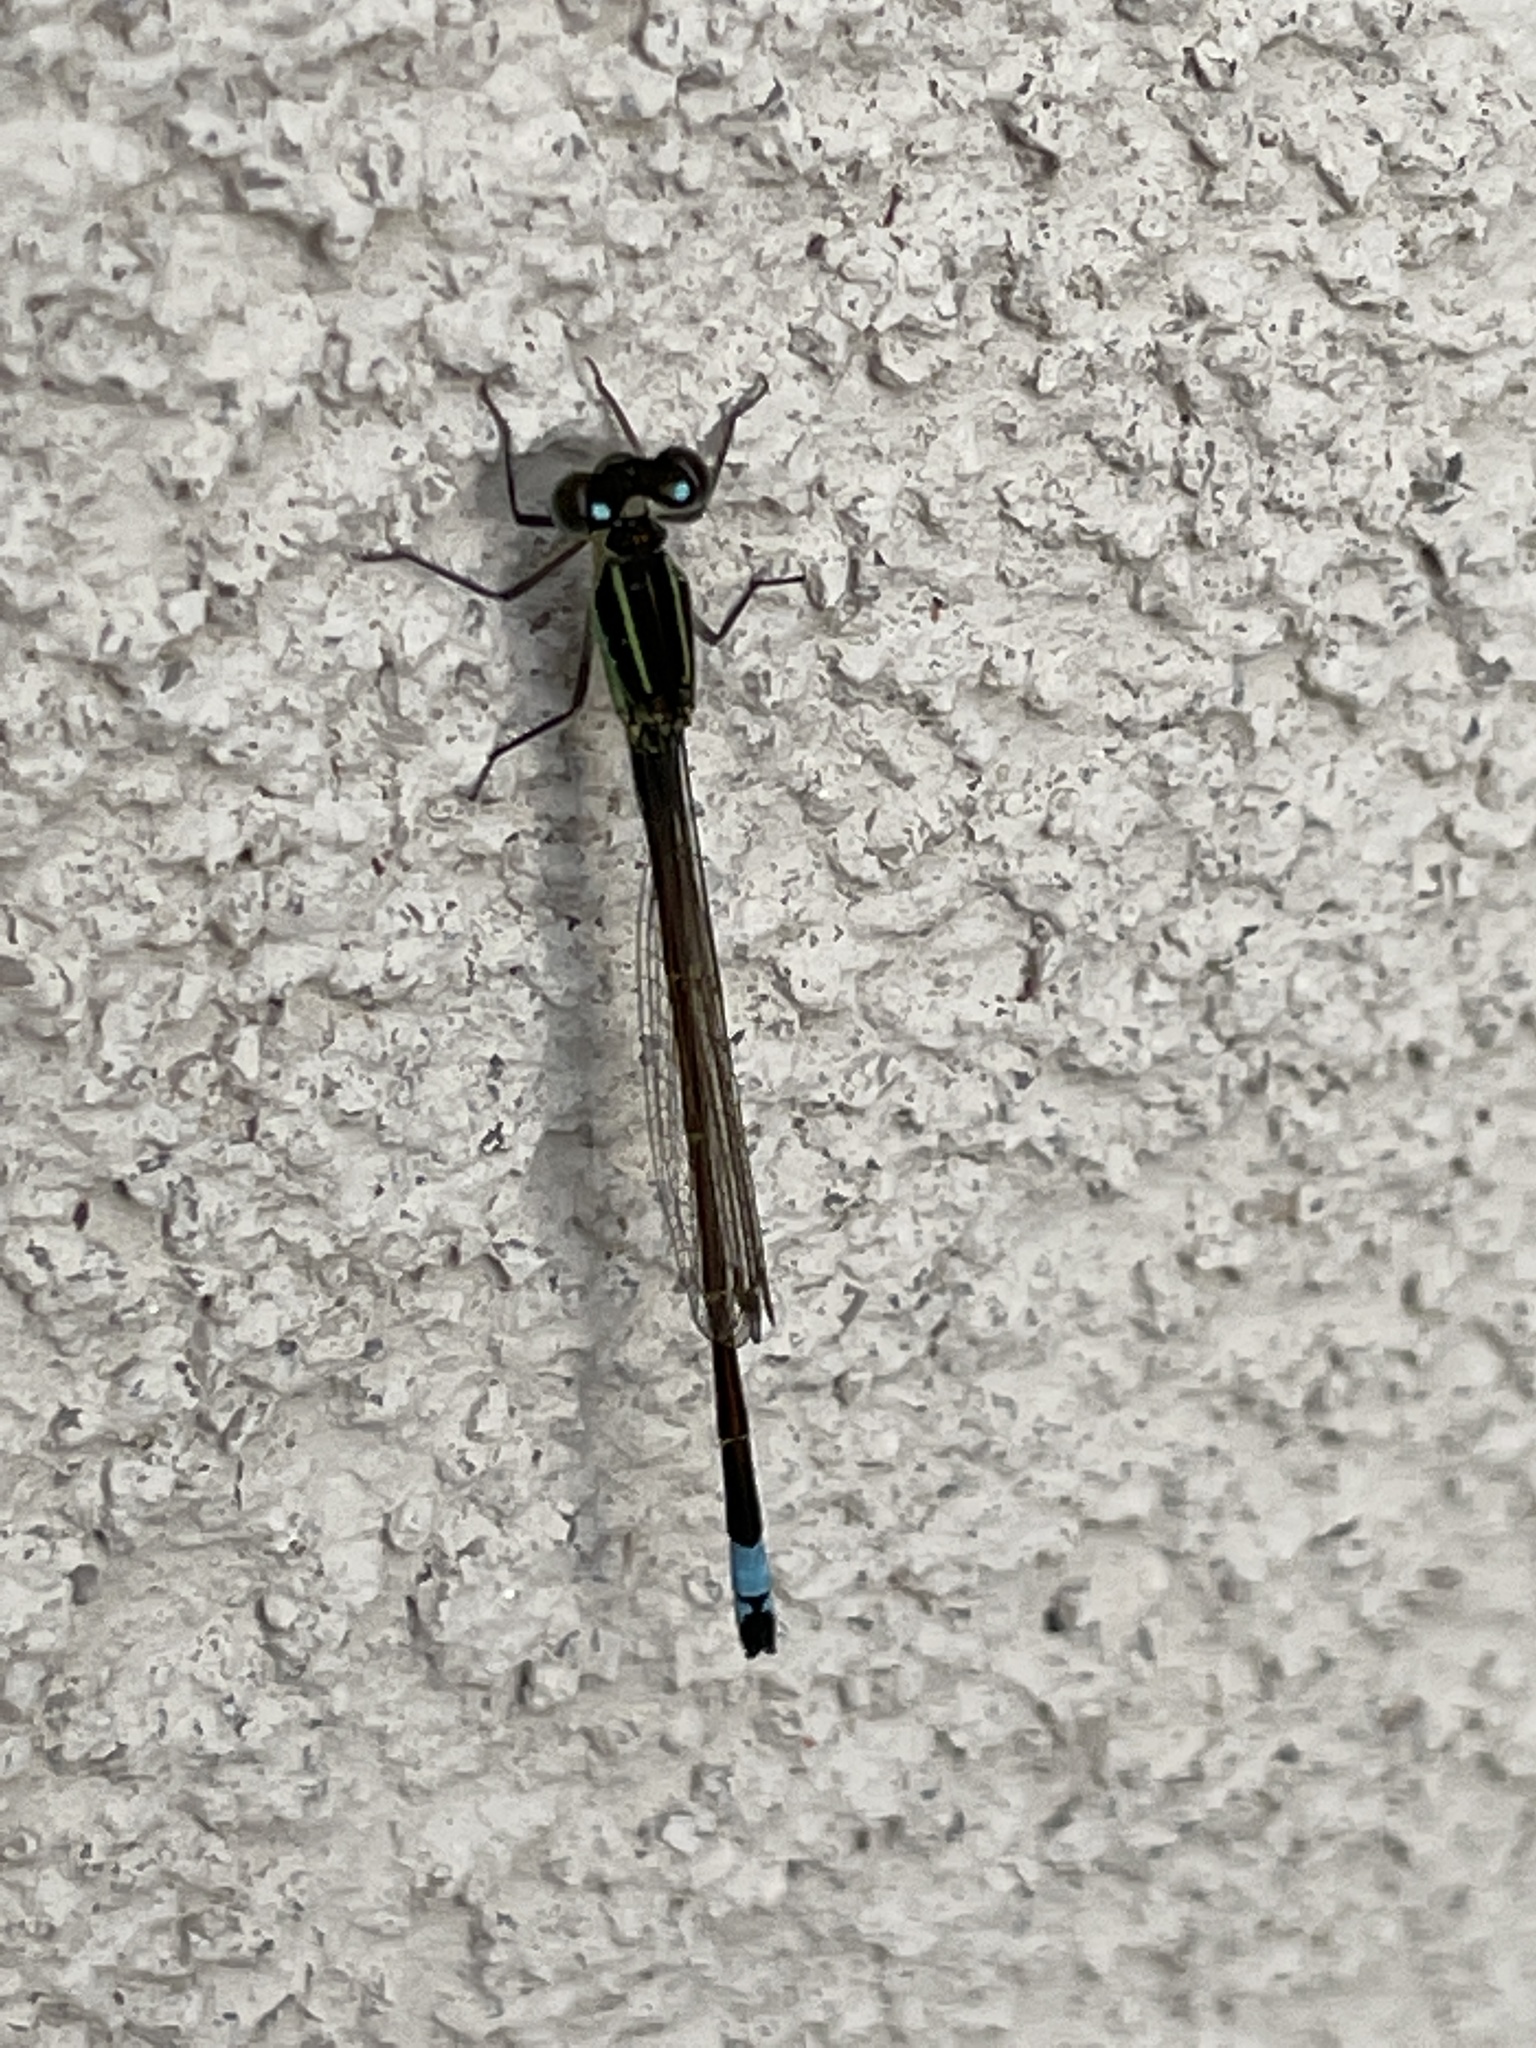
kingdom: Animalia
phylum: Arthropoda
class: Insecta
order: Odonata
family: Coenagrionidae
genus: Ischnura
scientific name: Ischnura ramburii
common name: Rambur's forktail
